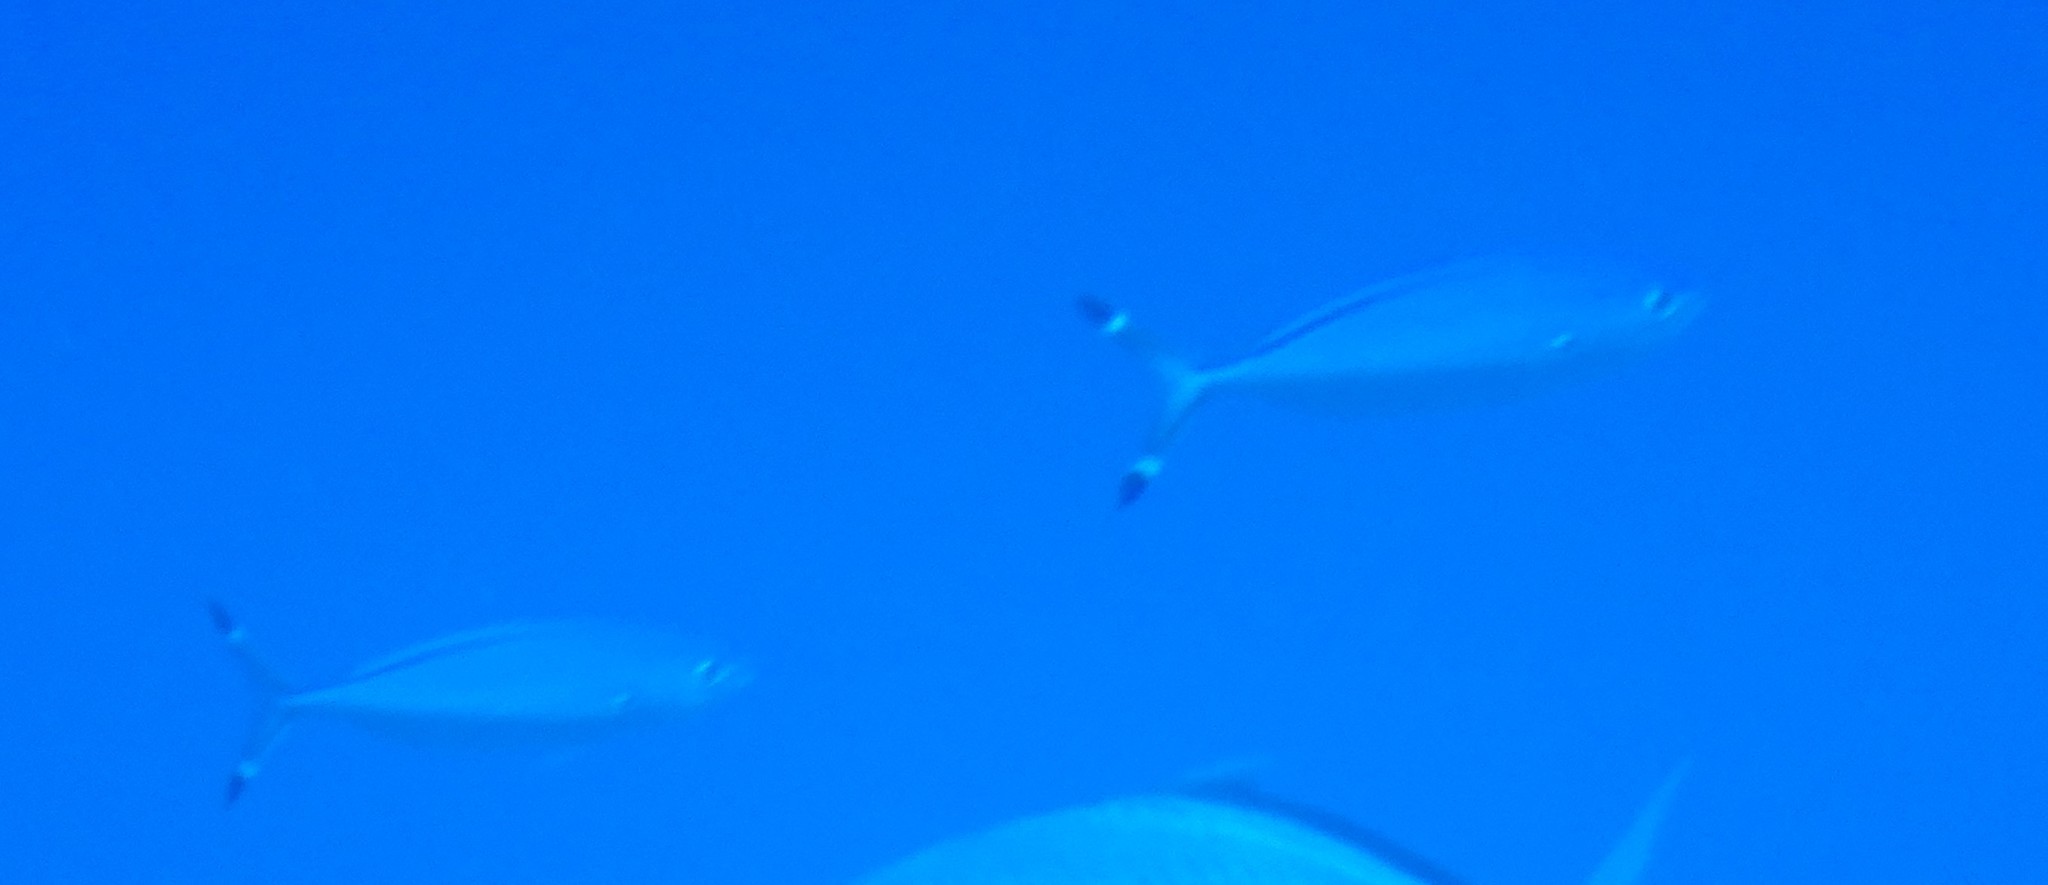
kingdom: Animalia
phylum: Chordata
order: Perciformes
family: Caesionidae
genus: Caesio
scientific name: Caesio suevica
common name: Suez fusilier
